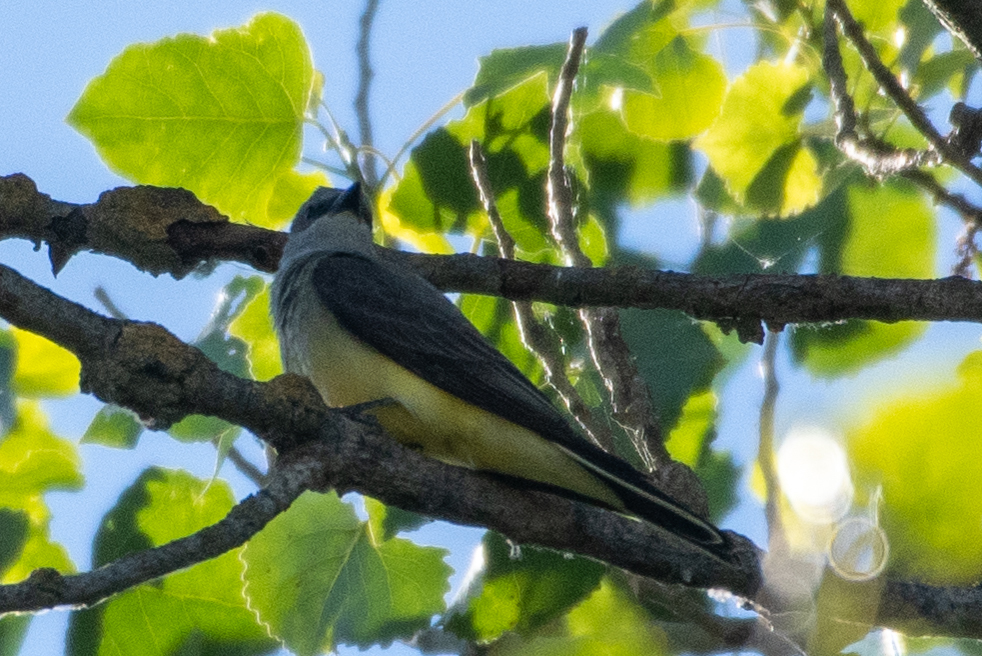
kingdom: Animalia
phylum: Chordata
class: Aves
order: Passeriformes
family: Tyrannidae
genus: Tyrannus
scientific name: Tyrannus verticalis
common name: Western kingbird
